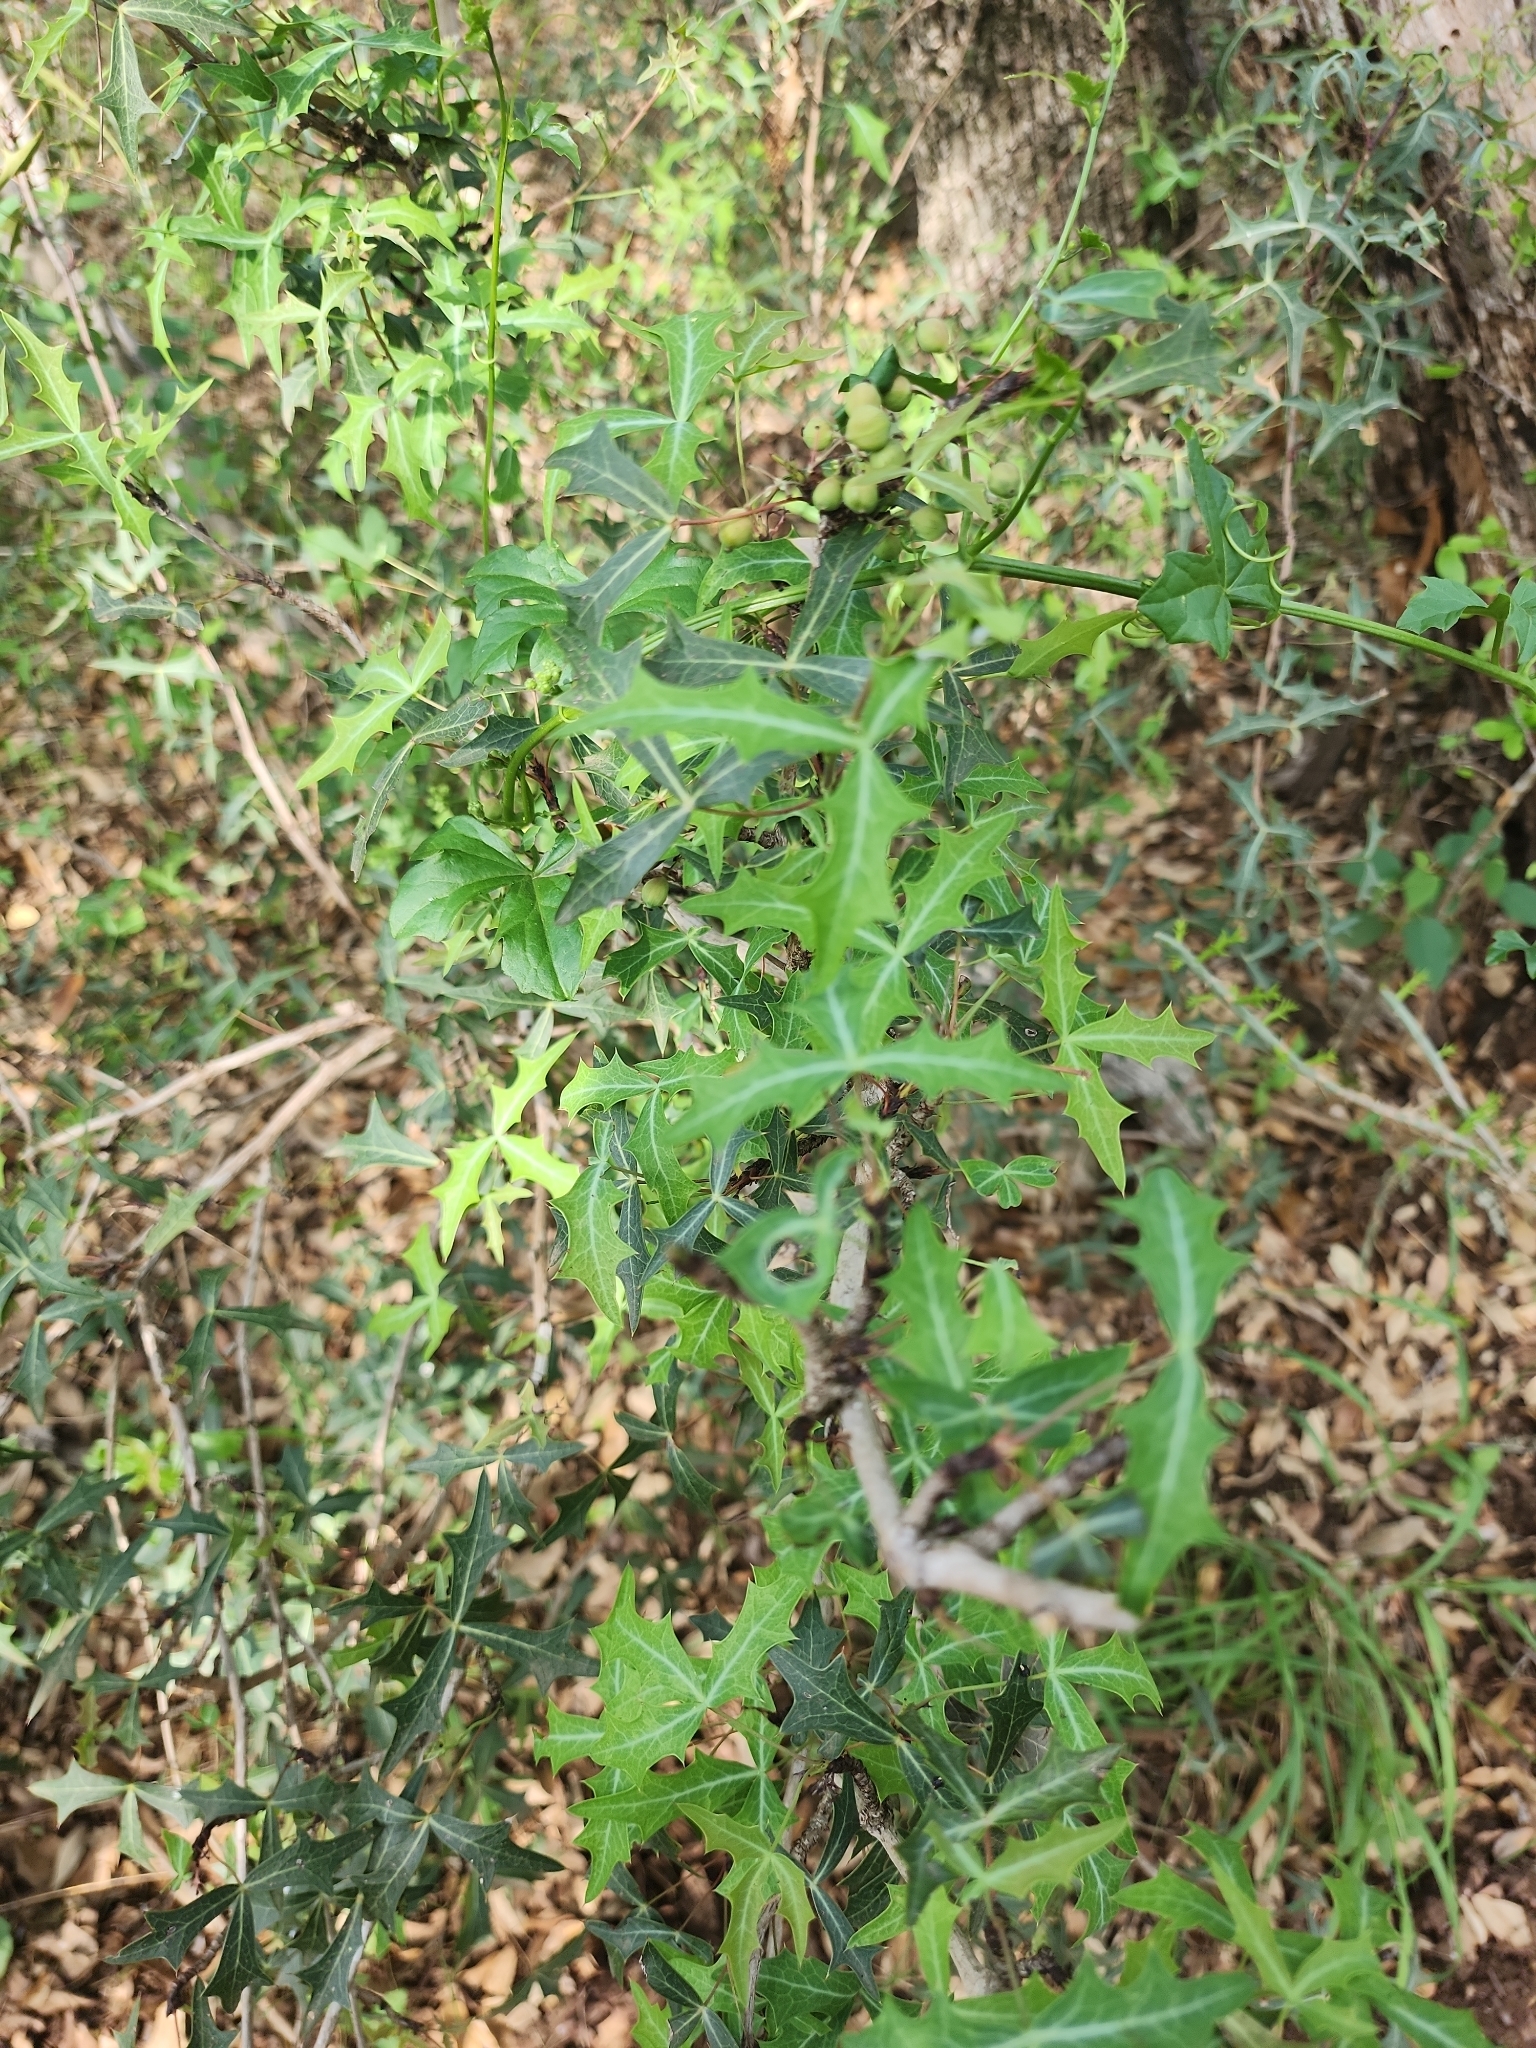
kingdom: Plantae
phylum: Tracheophyta
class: Magnoliopsida
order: Ranunculales
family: Berberidaceae
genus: Alloberberis
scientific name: Alloberberis trifoliolata
